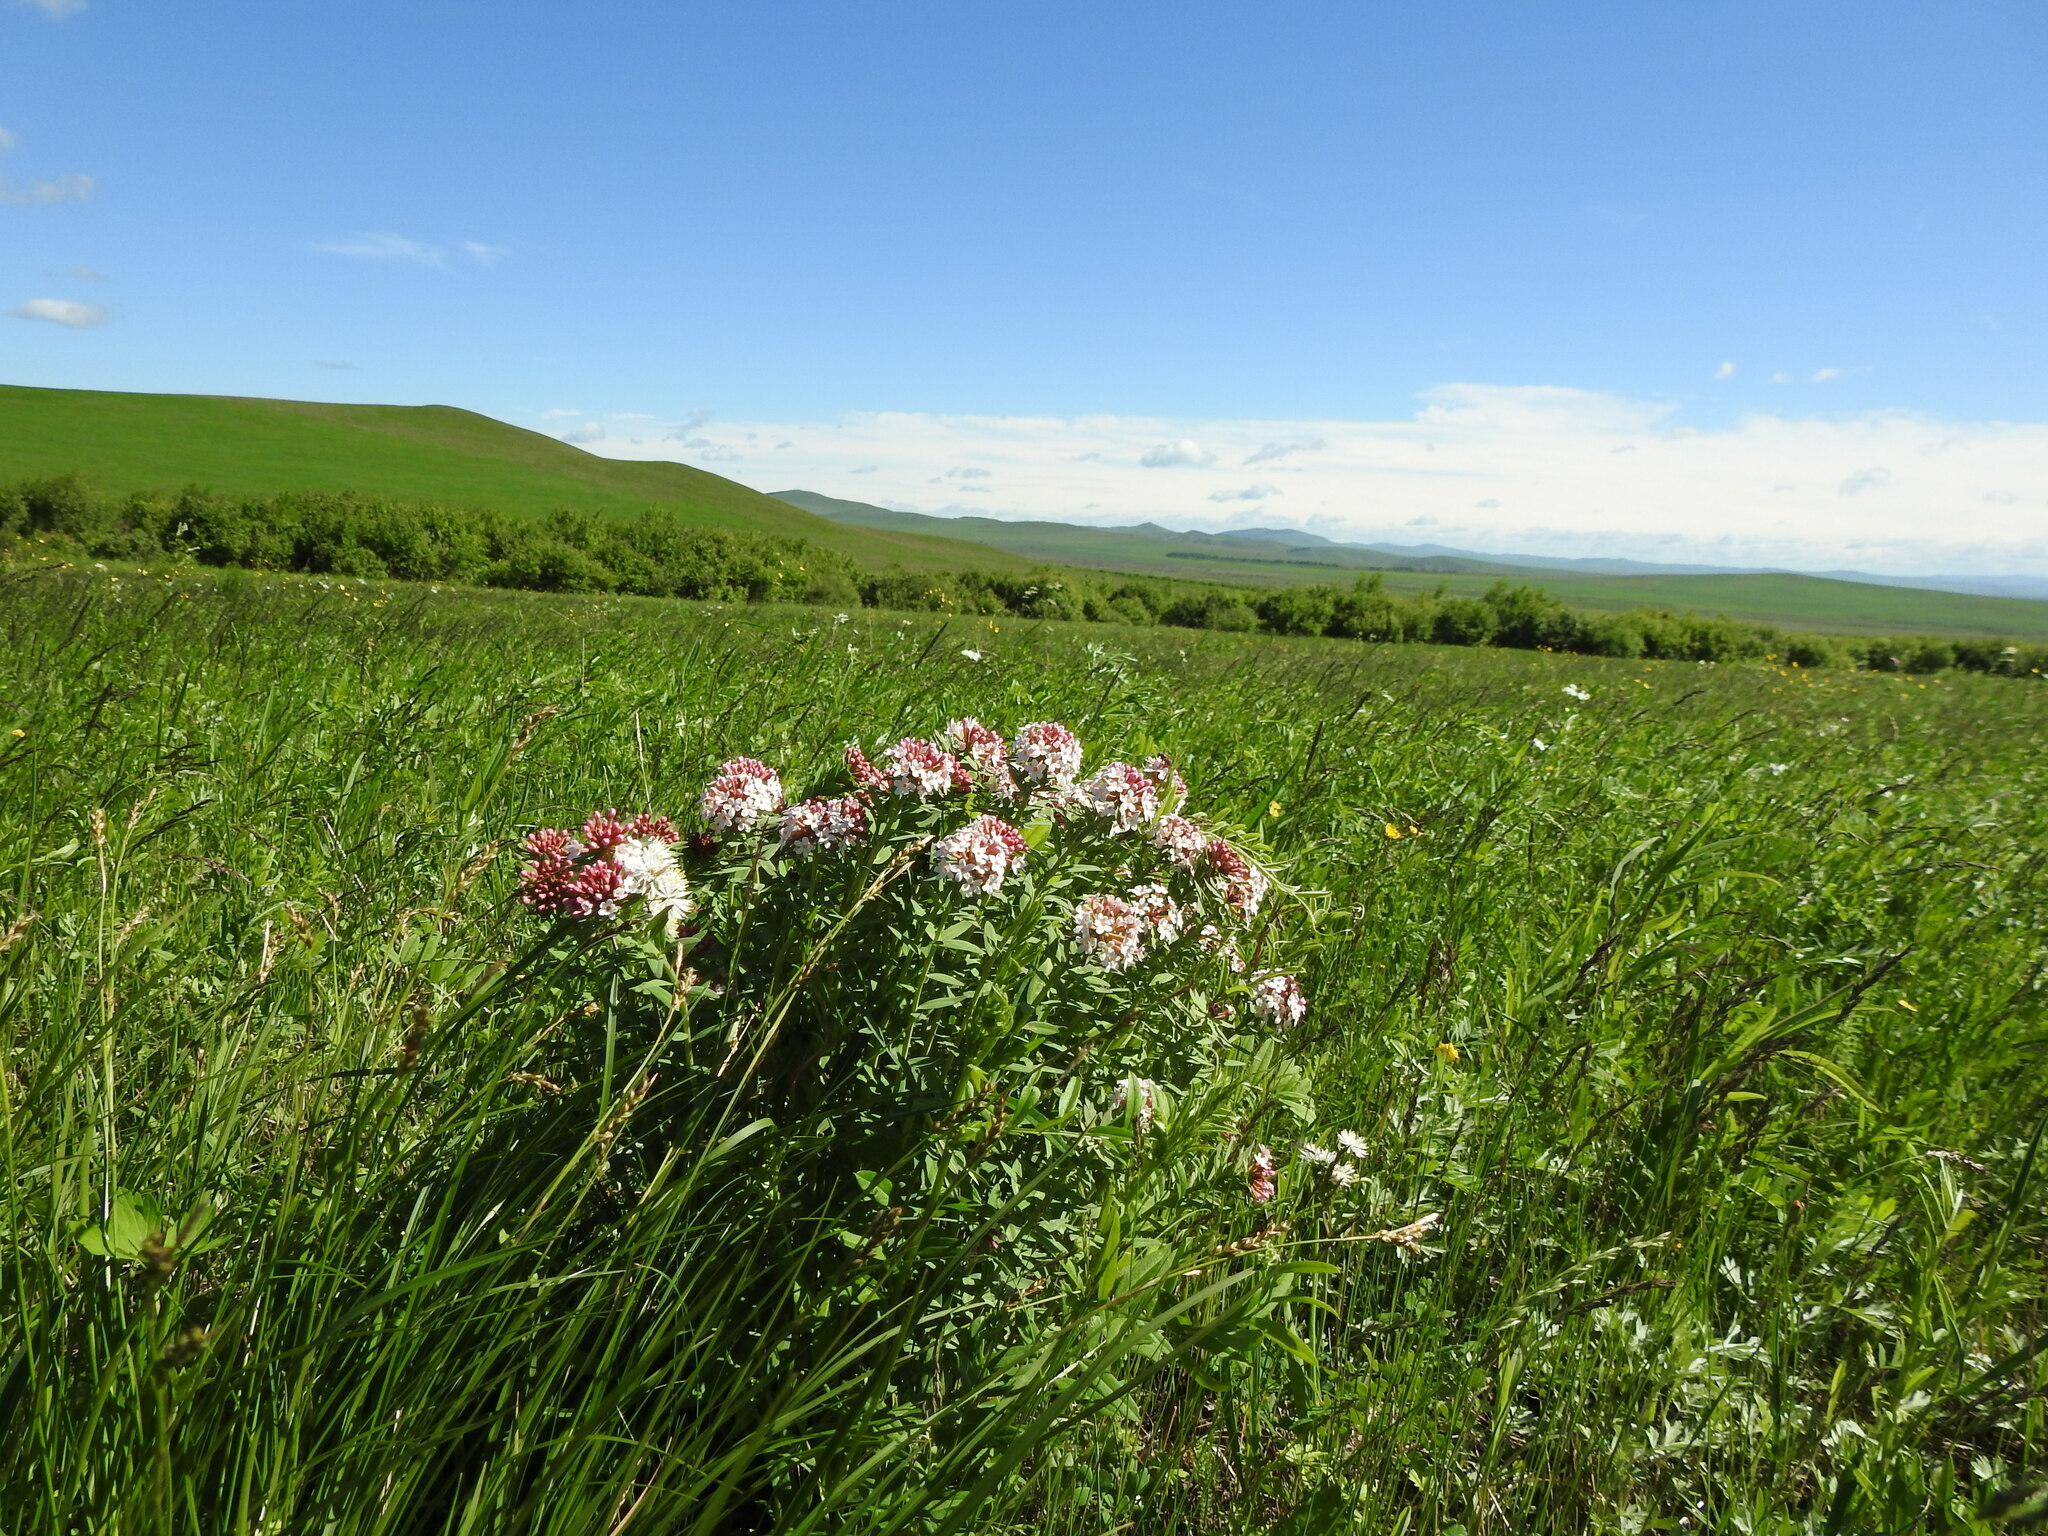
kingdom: Plantae
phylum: Tracheophyta
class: Magnoliopsida
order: Malvales
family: Thymelaeaceae
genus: Stellera
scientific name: Stellera chamaejasme
